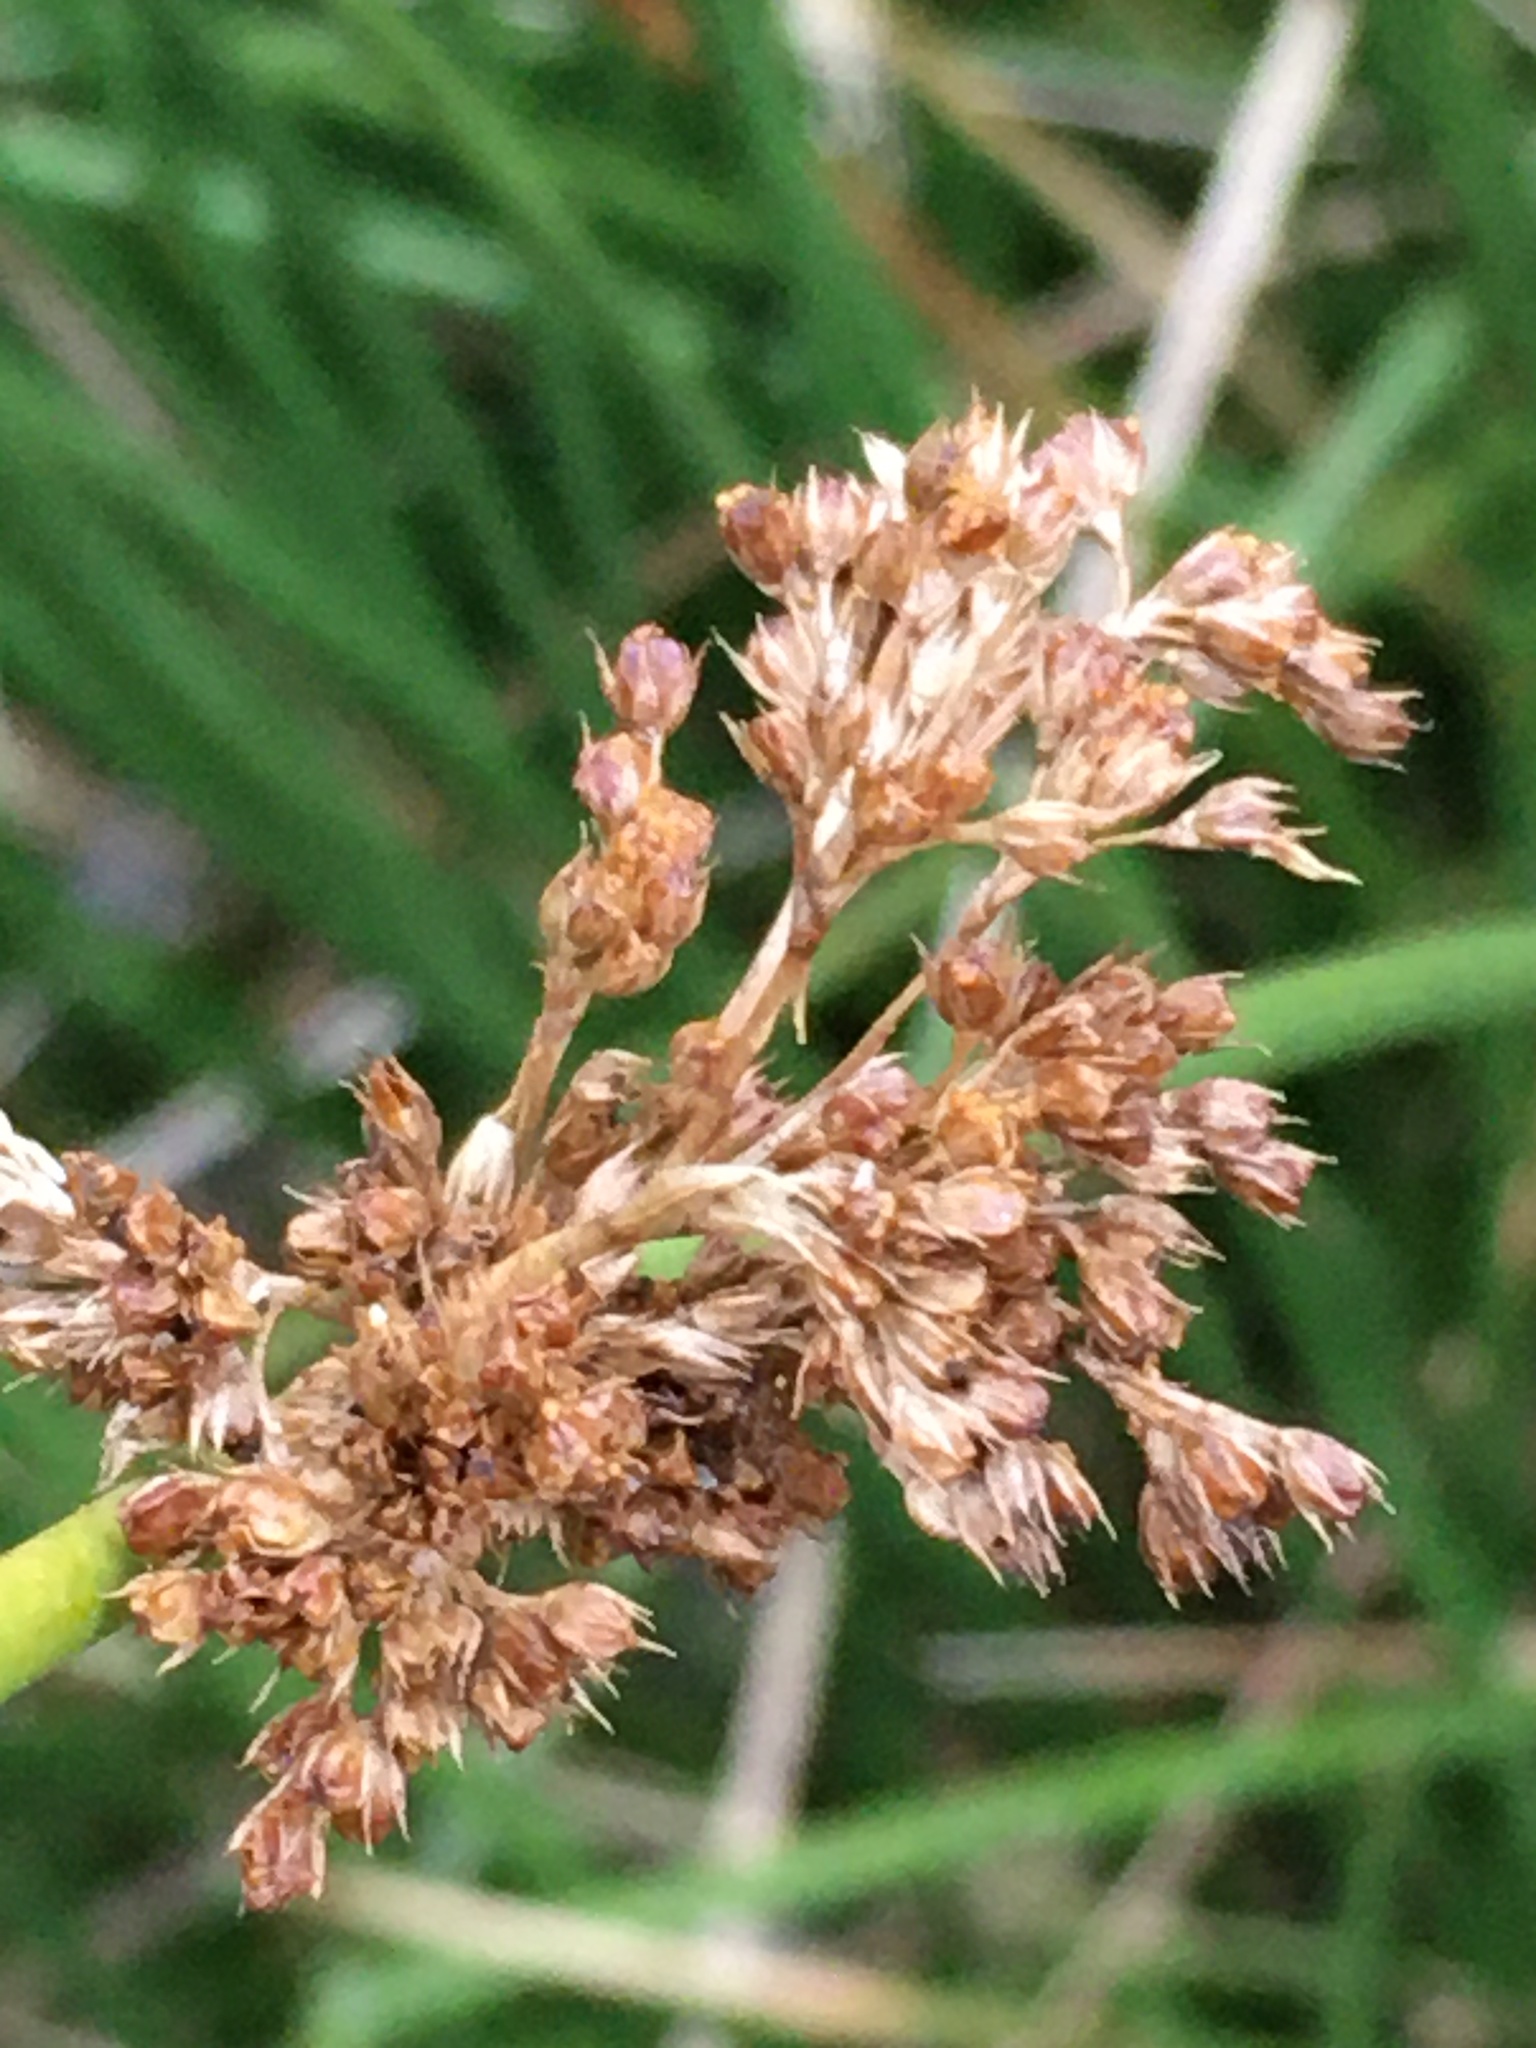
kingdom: Plantae
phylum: Tracheophyta
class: Liliopsida
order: Poales
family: Juncaceae
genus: Juncus
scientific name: Juncus effusus
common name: Soft rush
